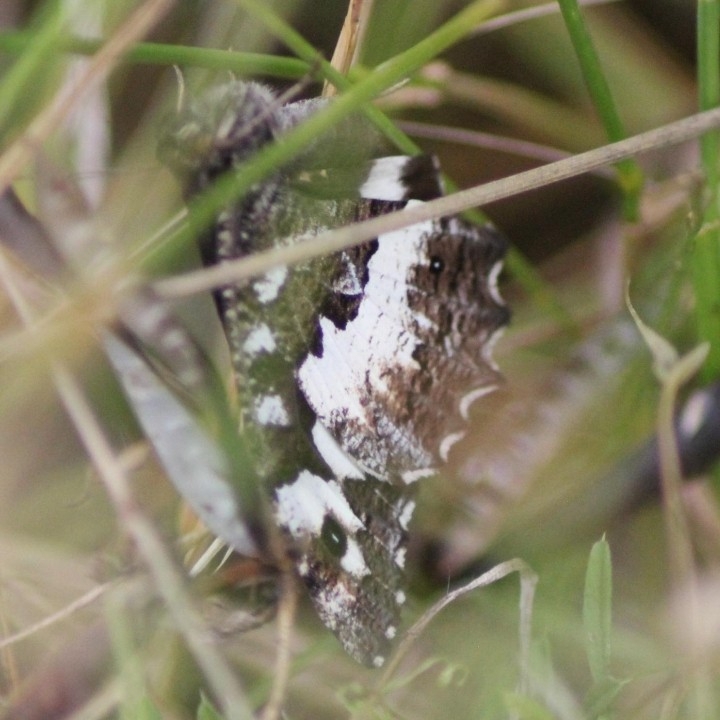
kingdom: Animalia
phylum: Arthropoda
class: Insecta
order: Lepidoptera
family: Lycaenidae
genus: Loweia
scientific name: Loweia tityrus
